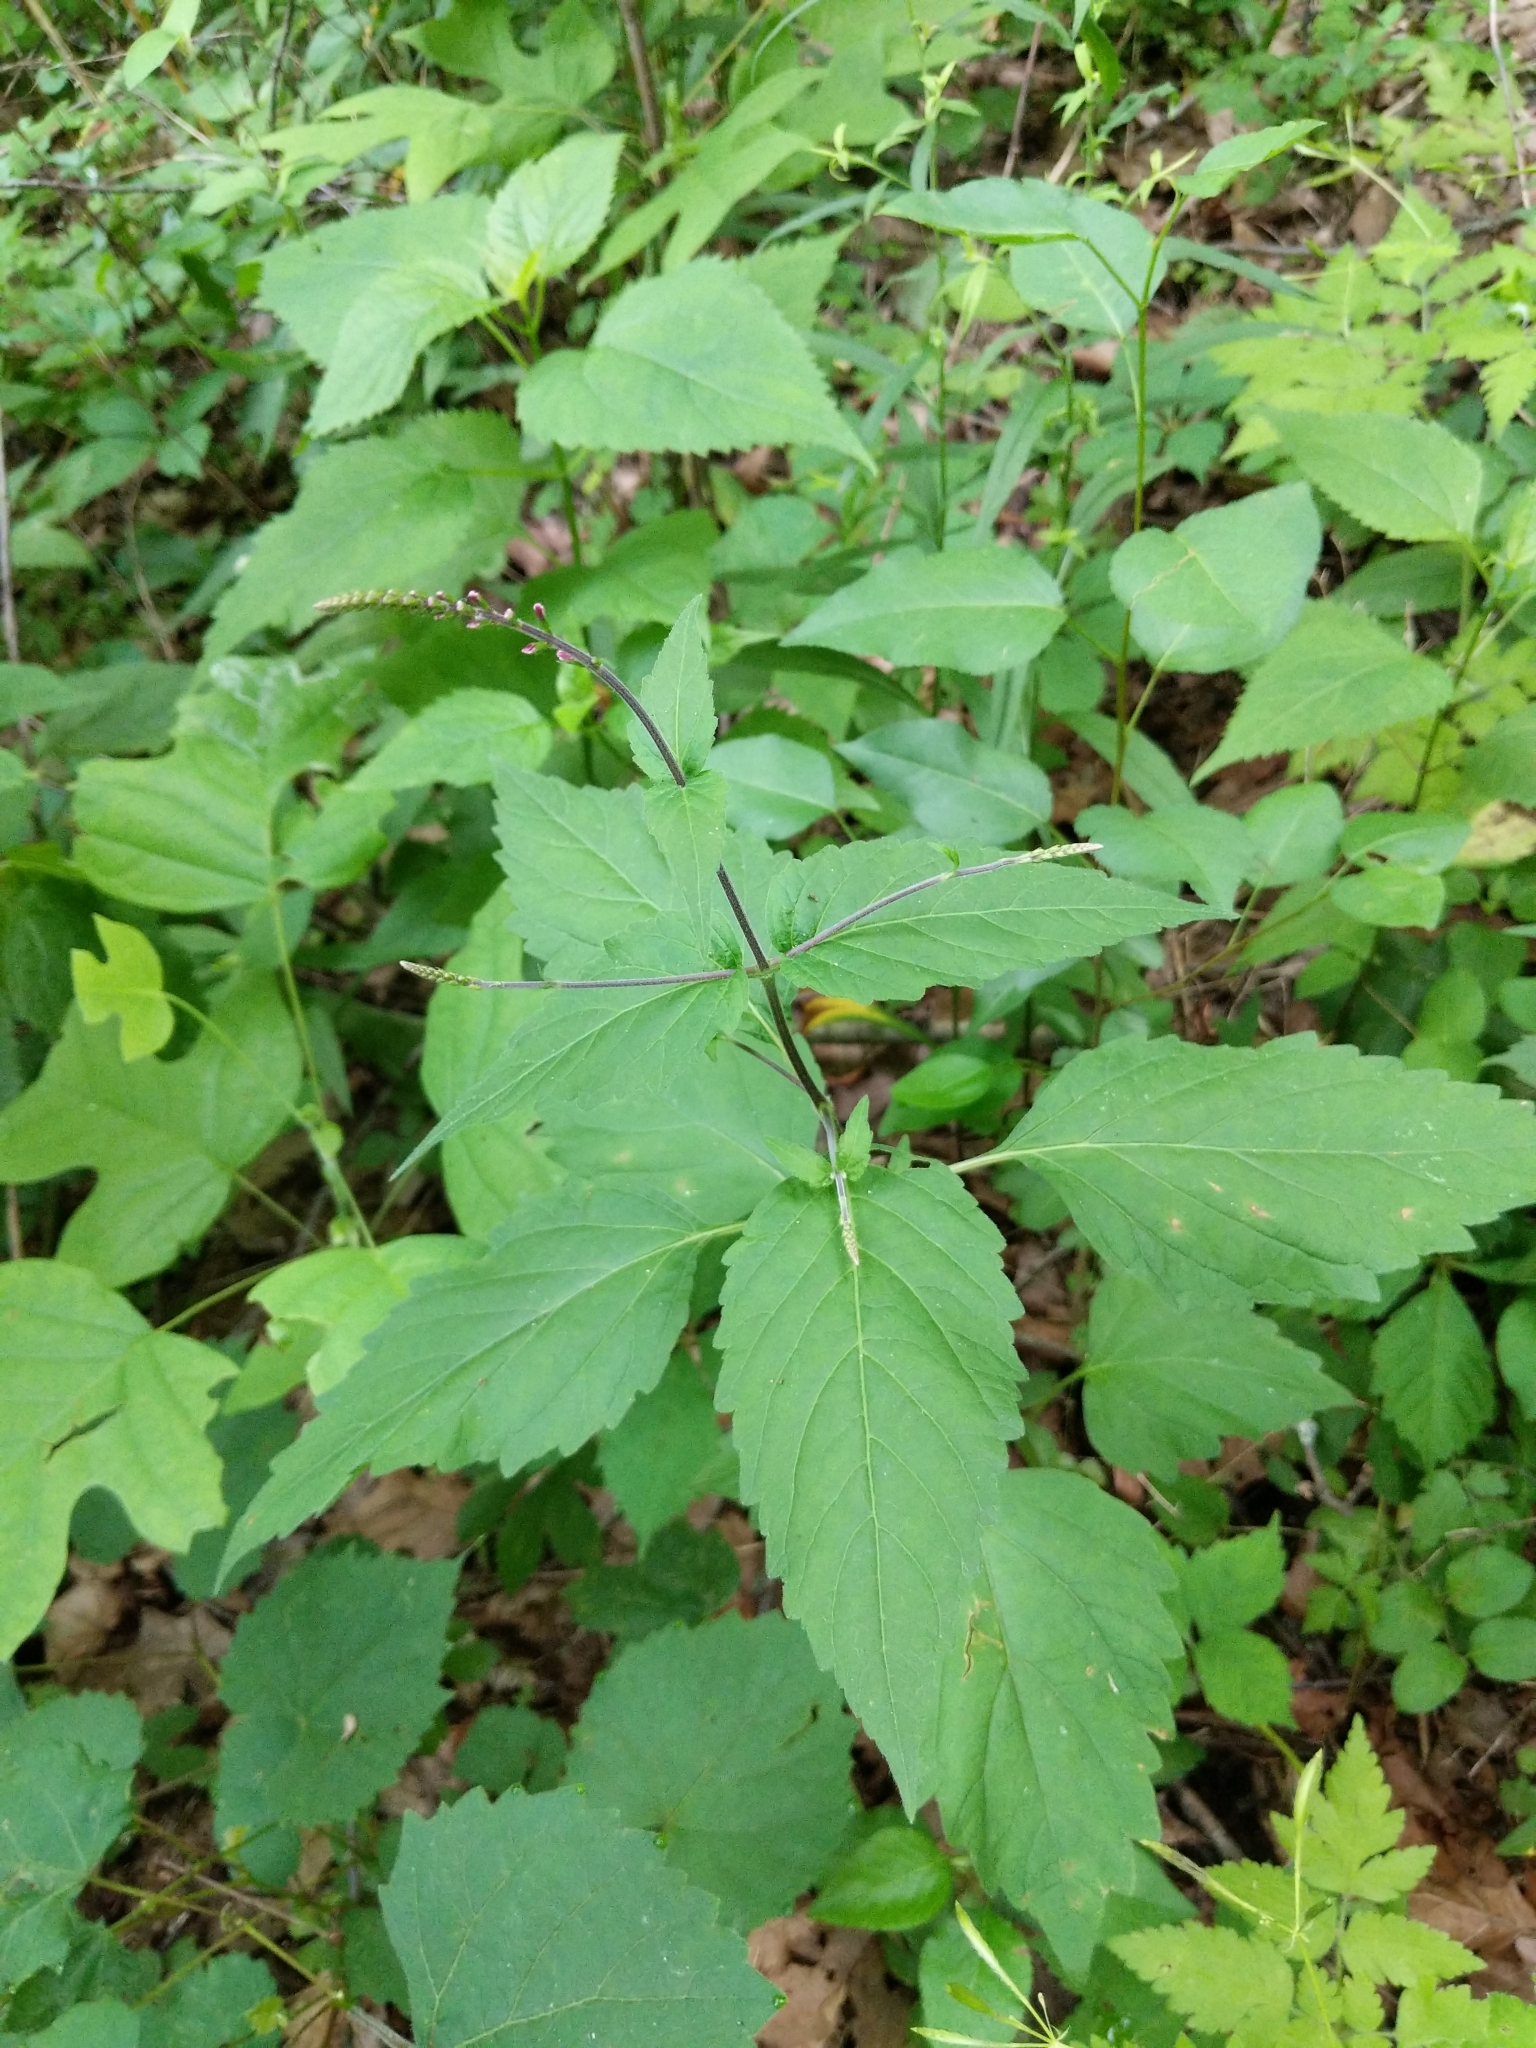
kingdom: Plantae
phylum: Tracheophyta
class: Magnoliopsida
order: Lamiales
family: Phrymaceae
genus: Phryma
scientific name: Phryma leptostachya
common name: American lopseed
